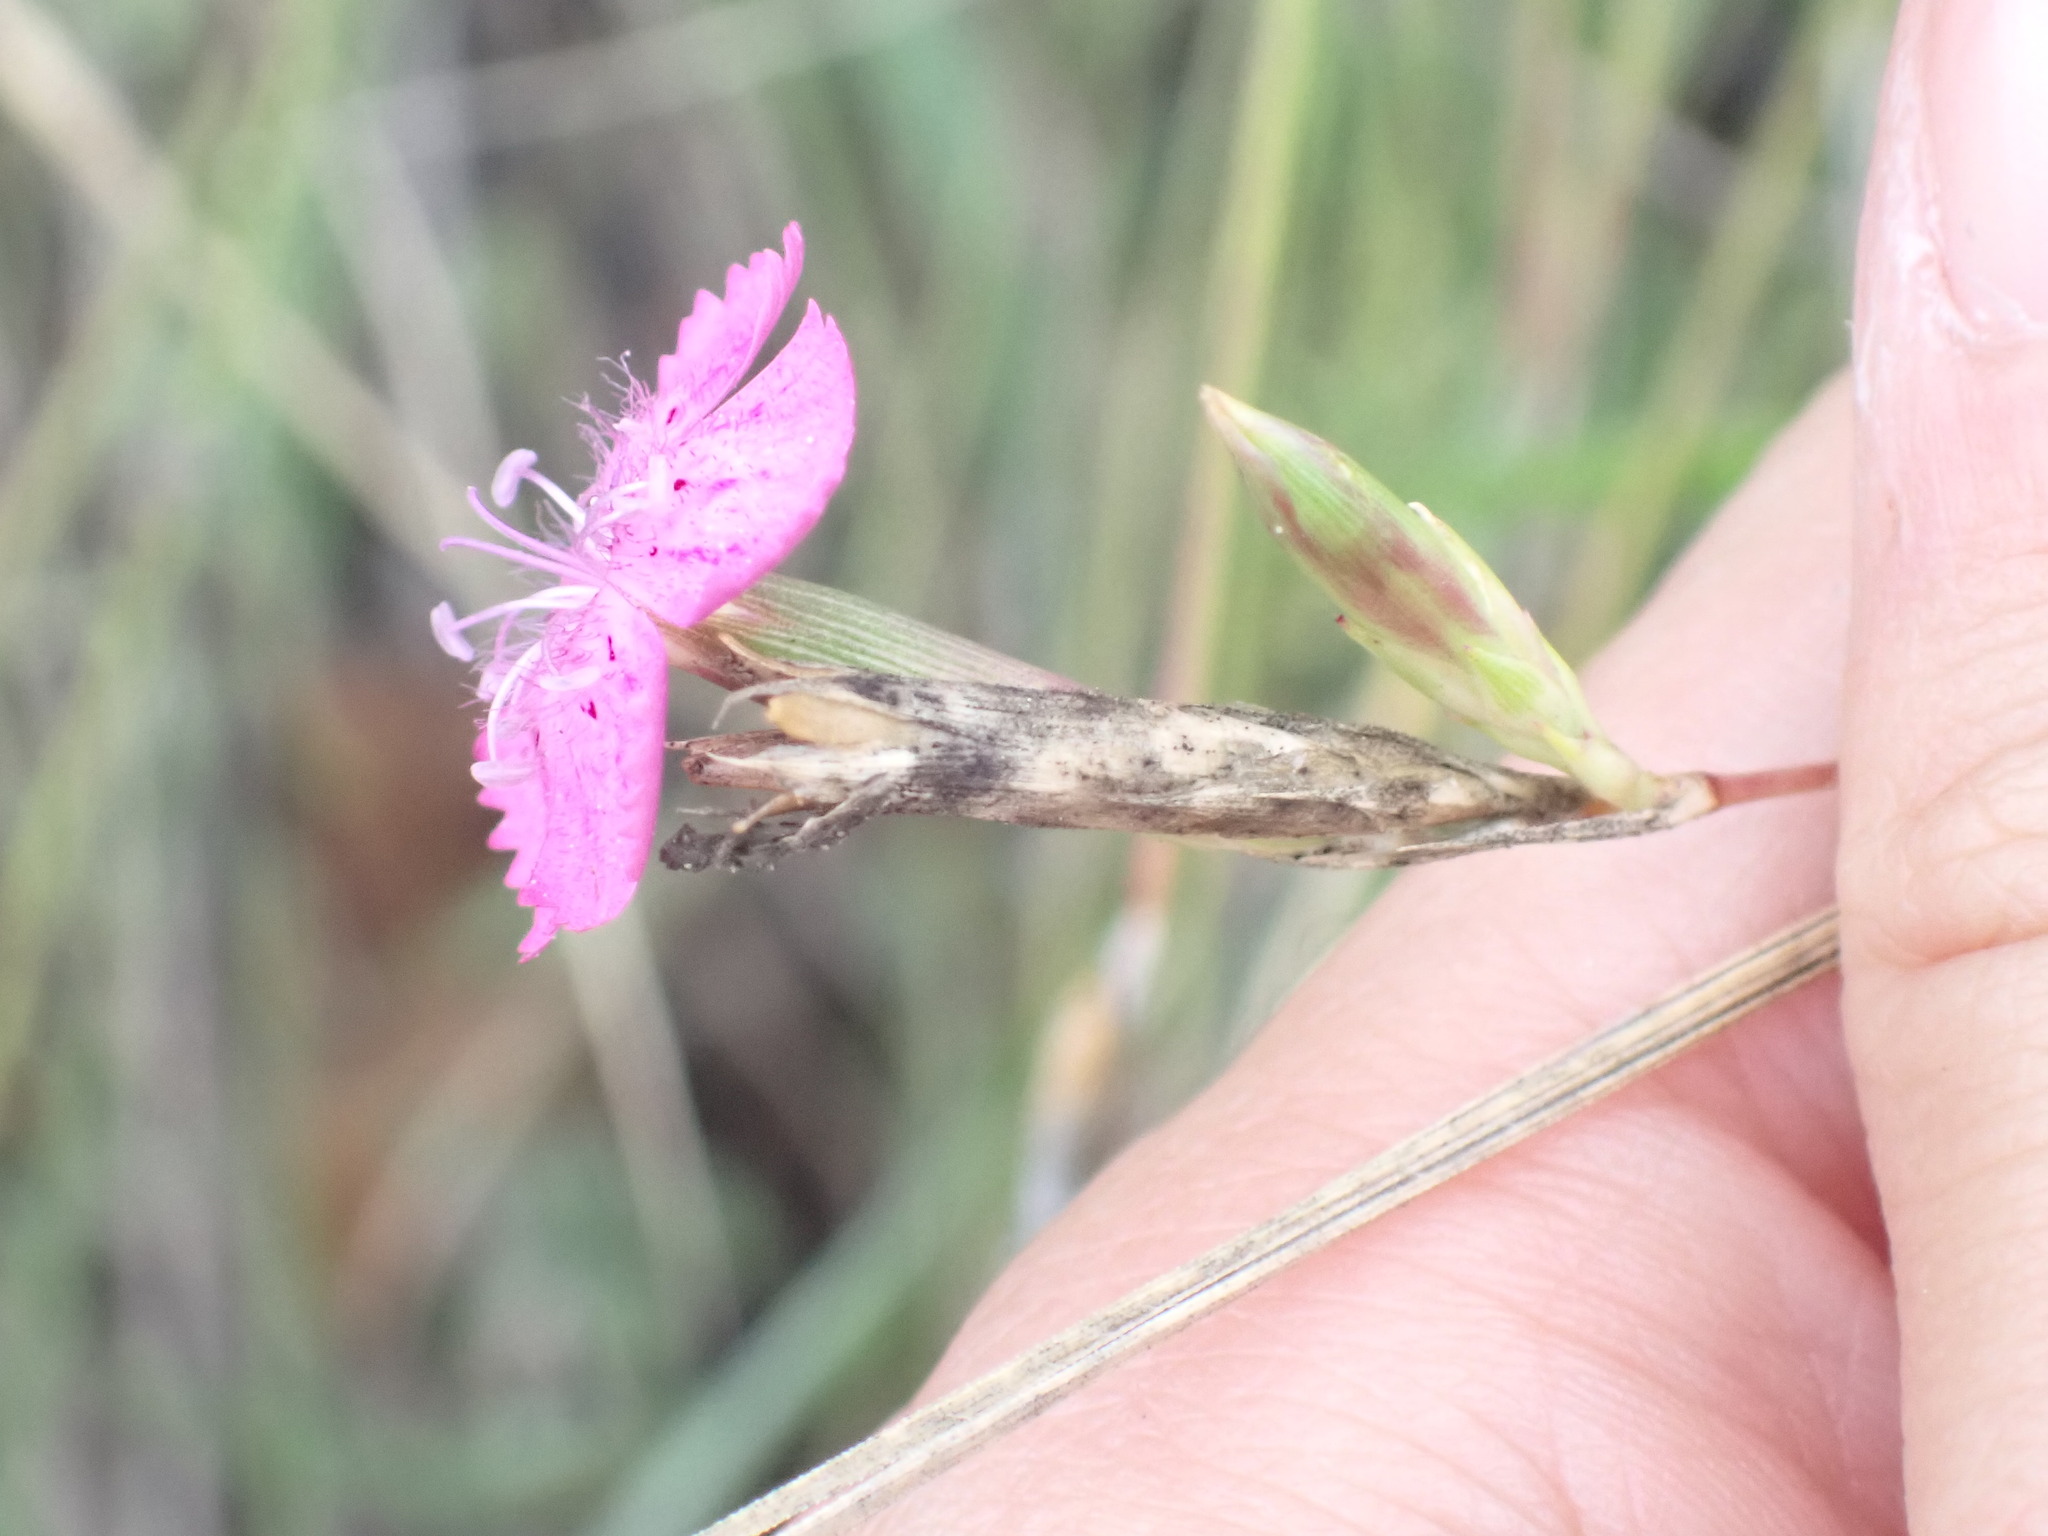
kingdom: Plantae
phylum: Tracheophyta
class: Magnoliopsida
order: Caryophyllales
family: Caryophyllaceae
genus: Dianthus
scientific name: Dianthus scaber
